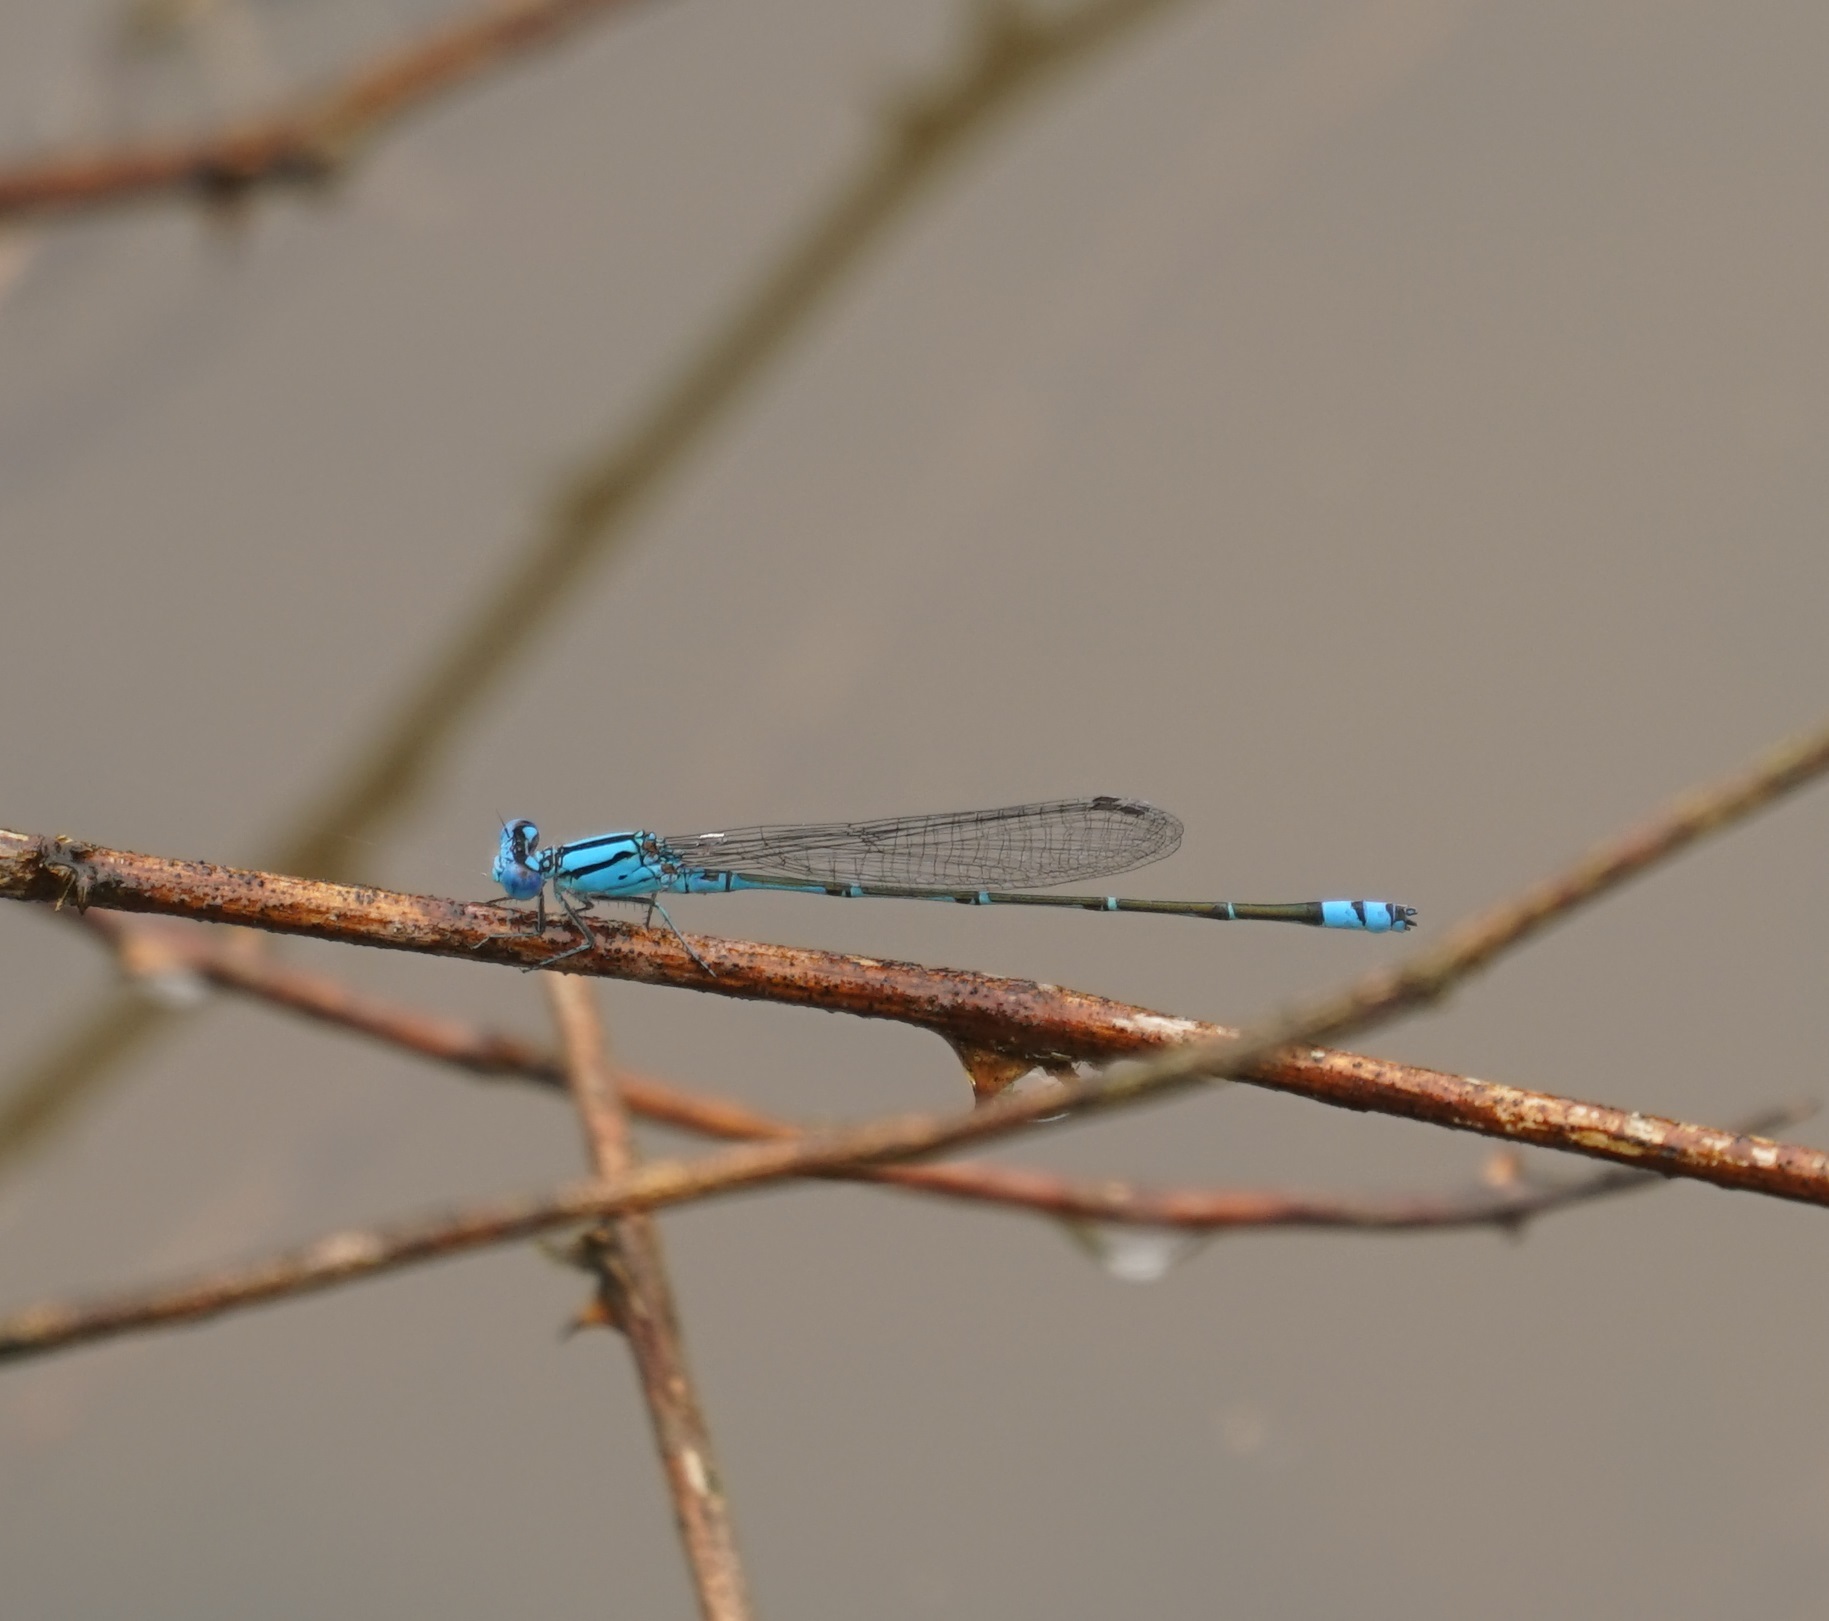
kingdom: Animalia
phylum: Arthropoda
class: Insecta
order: Odonata
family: Coenagrionidae
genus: Pseudagrion
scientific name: Pseudagrion microcephalum
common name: Blue riverdamsel
